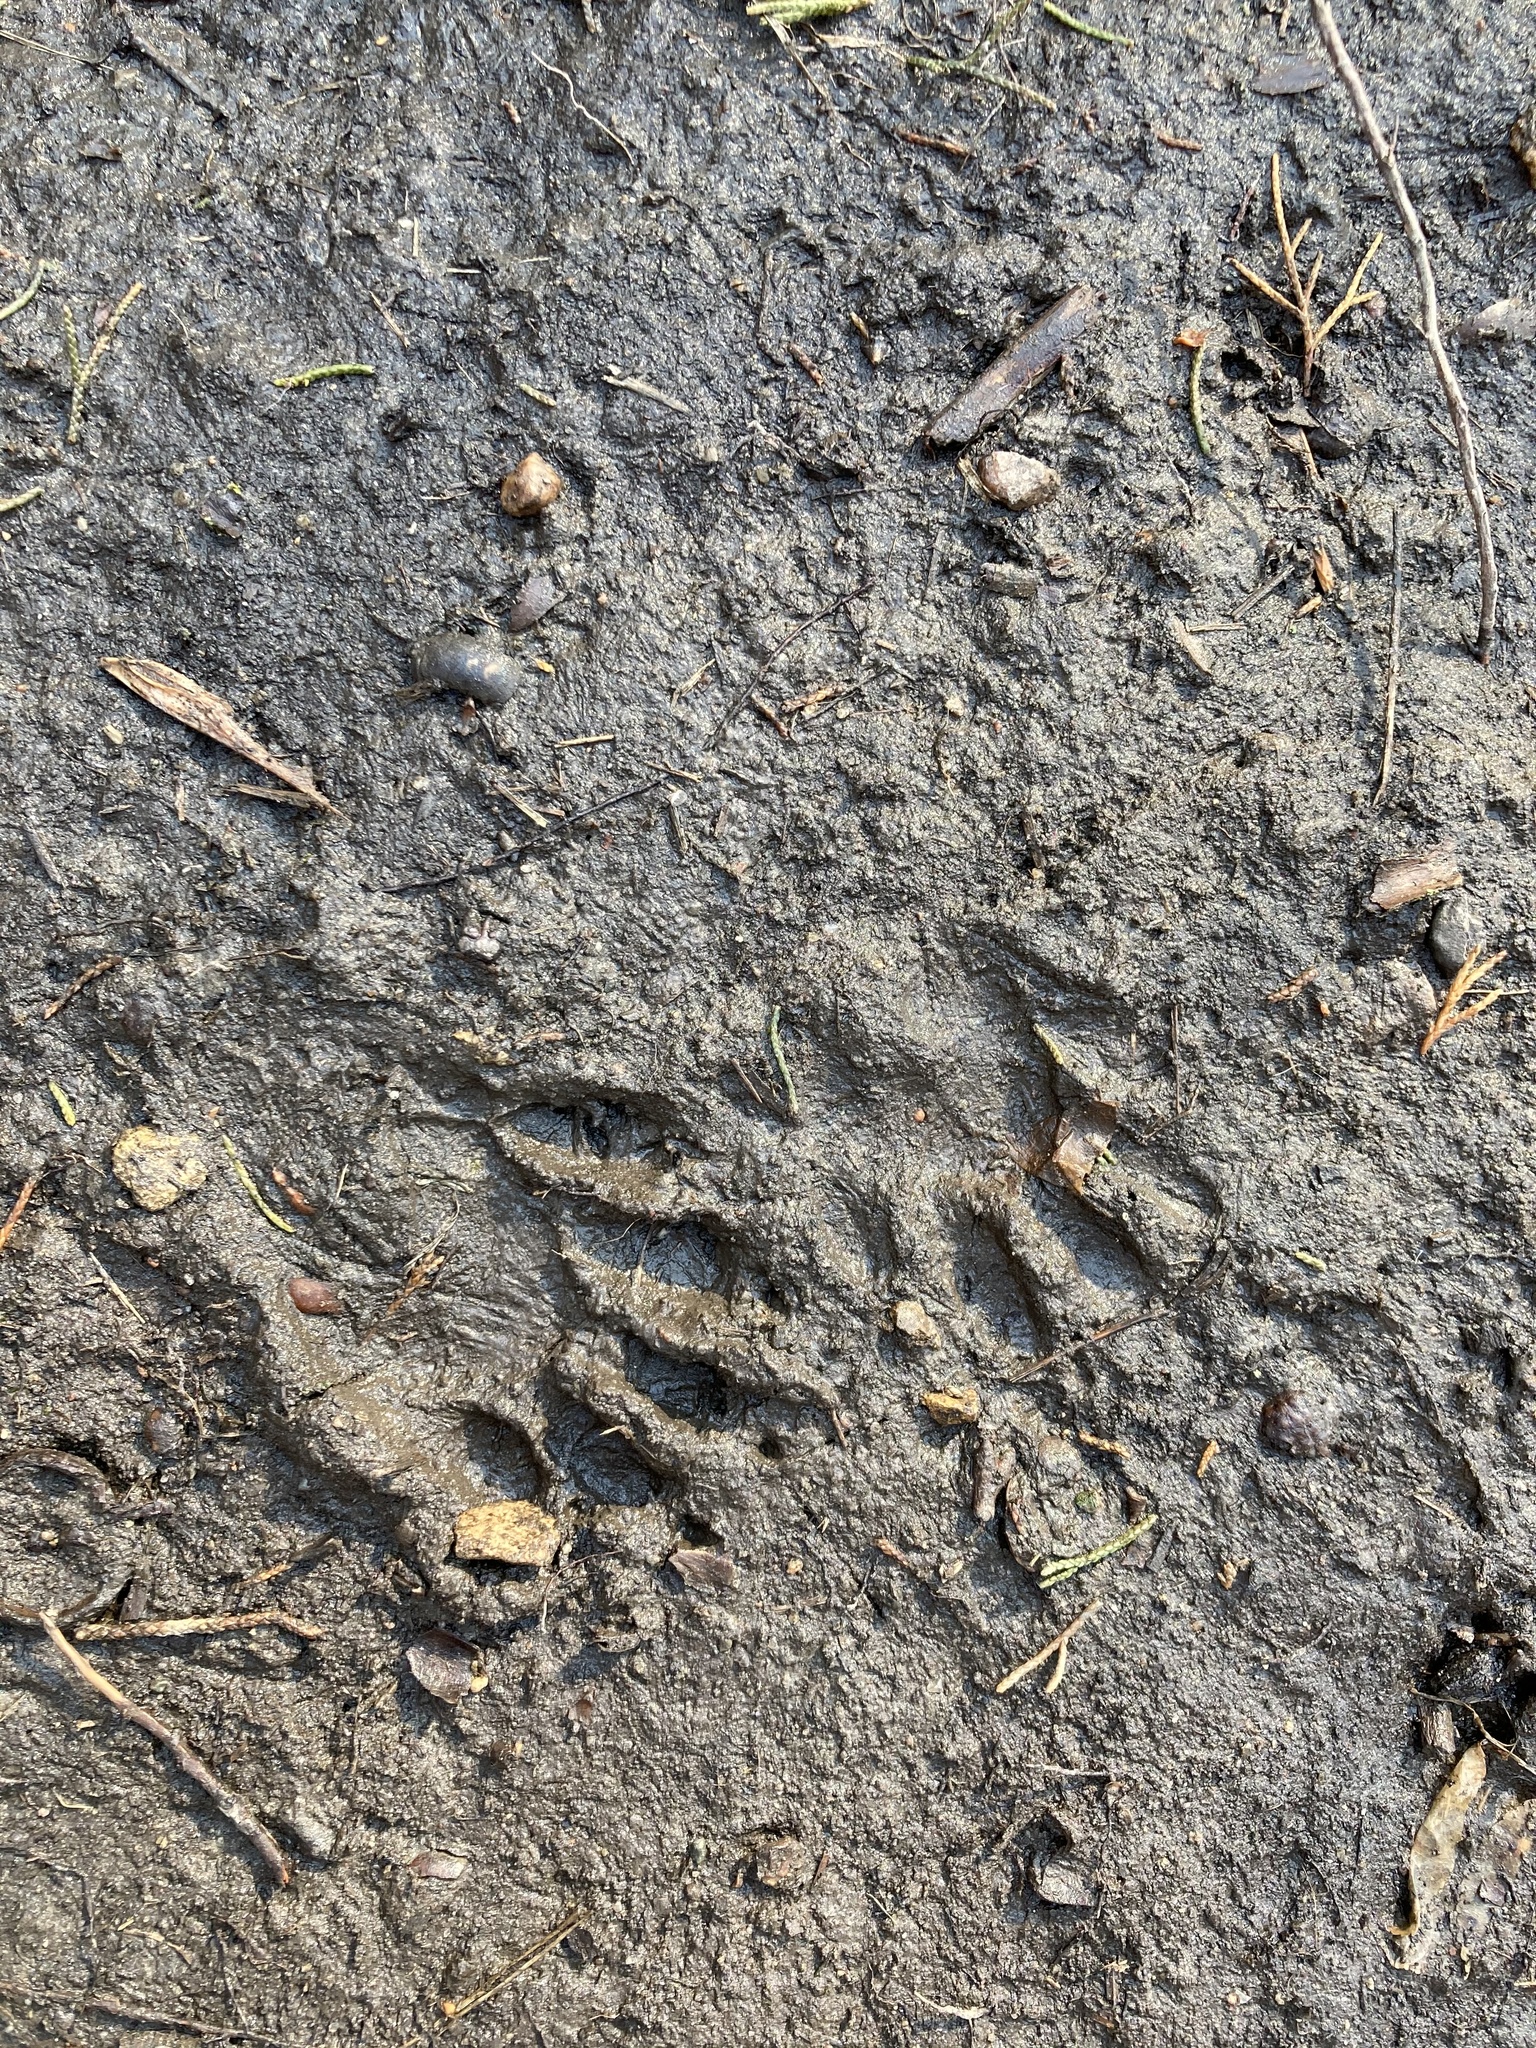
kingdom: Animalia
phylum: Chordata
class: Mammalia
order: Carnivora
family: Procyonidae
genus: Procyon
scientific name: Procyon lotor
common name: Raccoon
